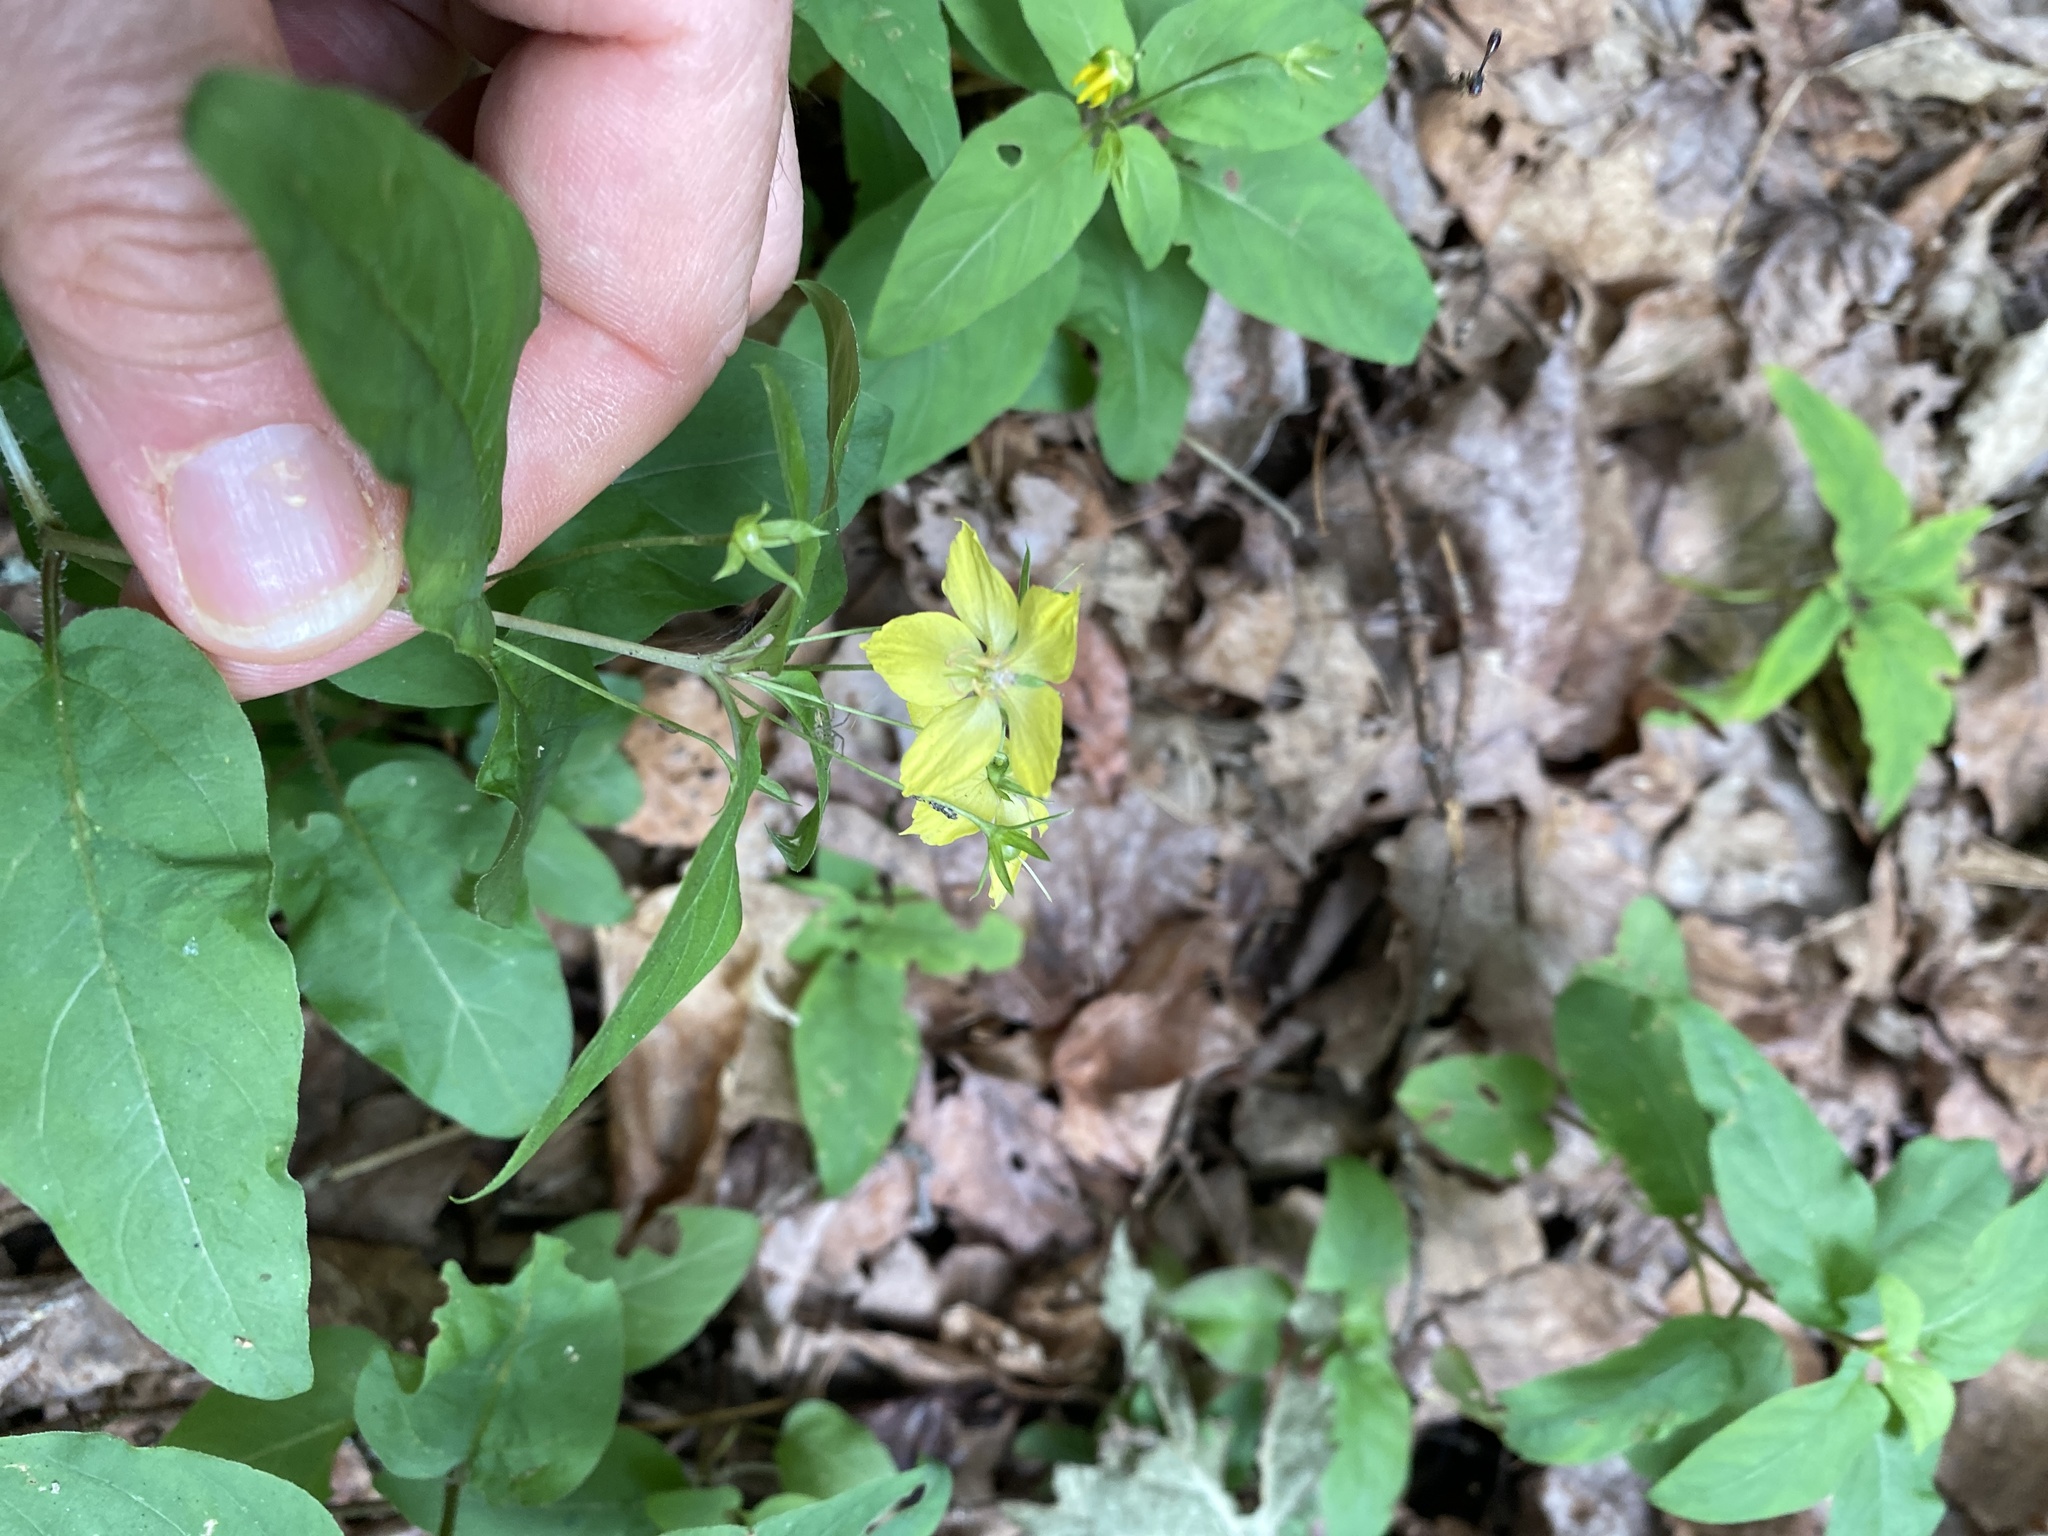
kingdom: Plantae
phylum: Tracheophyta
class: Magnoliopsida
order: Ericales
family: Primulaceae
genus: Lysimachia
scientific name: Lysimachia ciliata
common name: Fringed loosestrife
